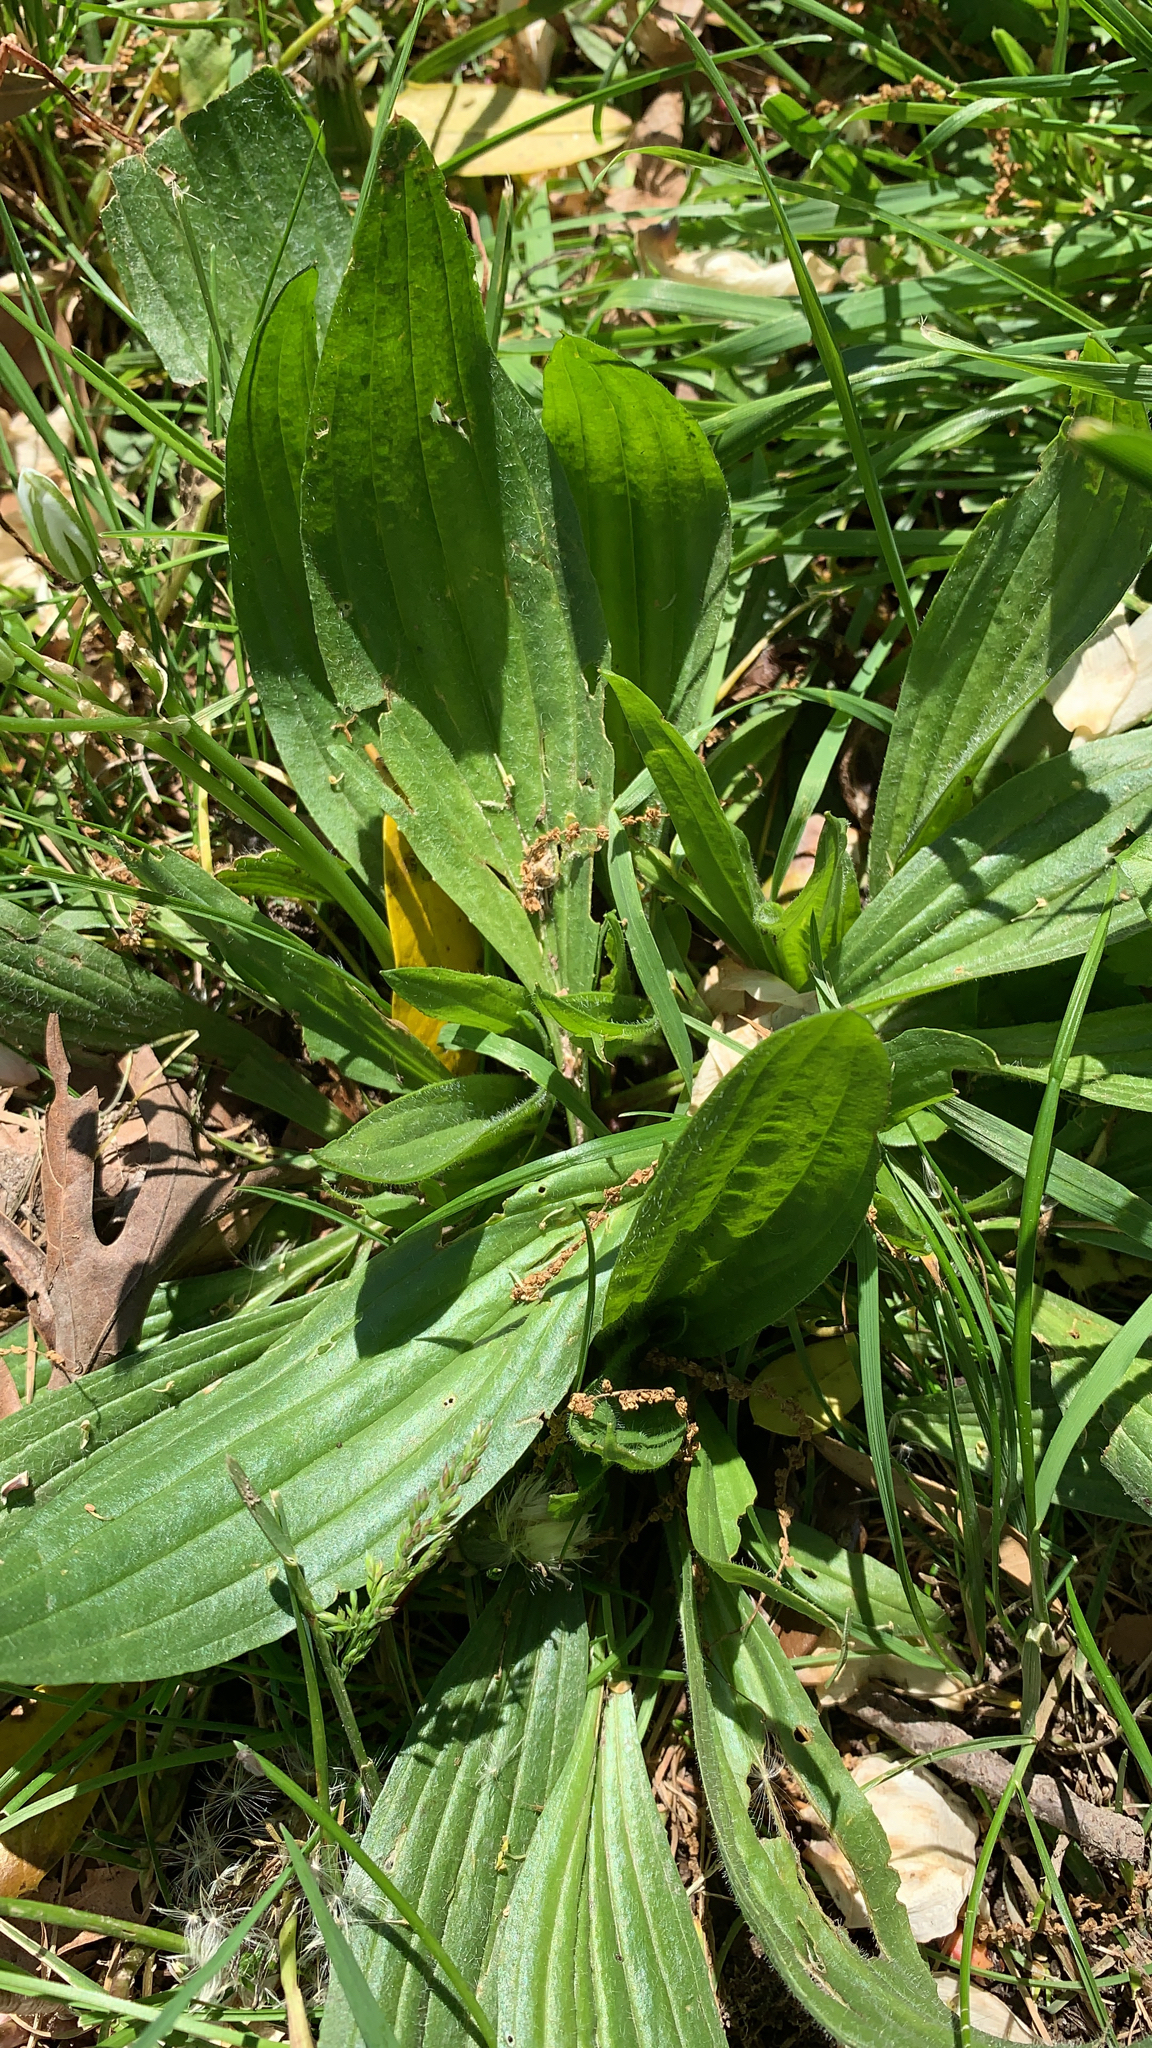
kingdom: Plantae
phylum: Tracheophyta
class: Magnoliopsida
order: Lamiales
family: Plantaginaceae
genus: Plantago
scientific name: Plantago lanceolata
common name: Ribwort plantain
